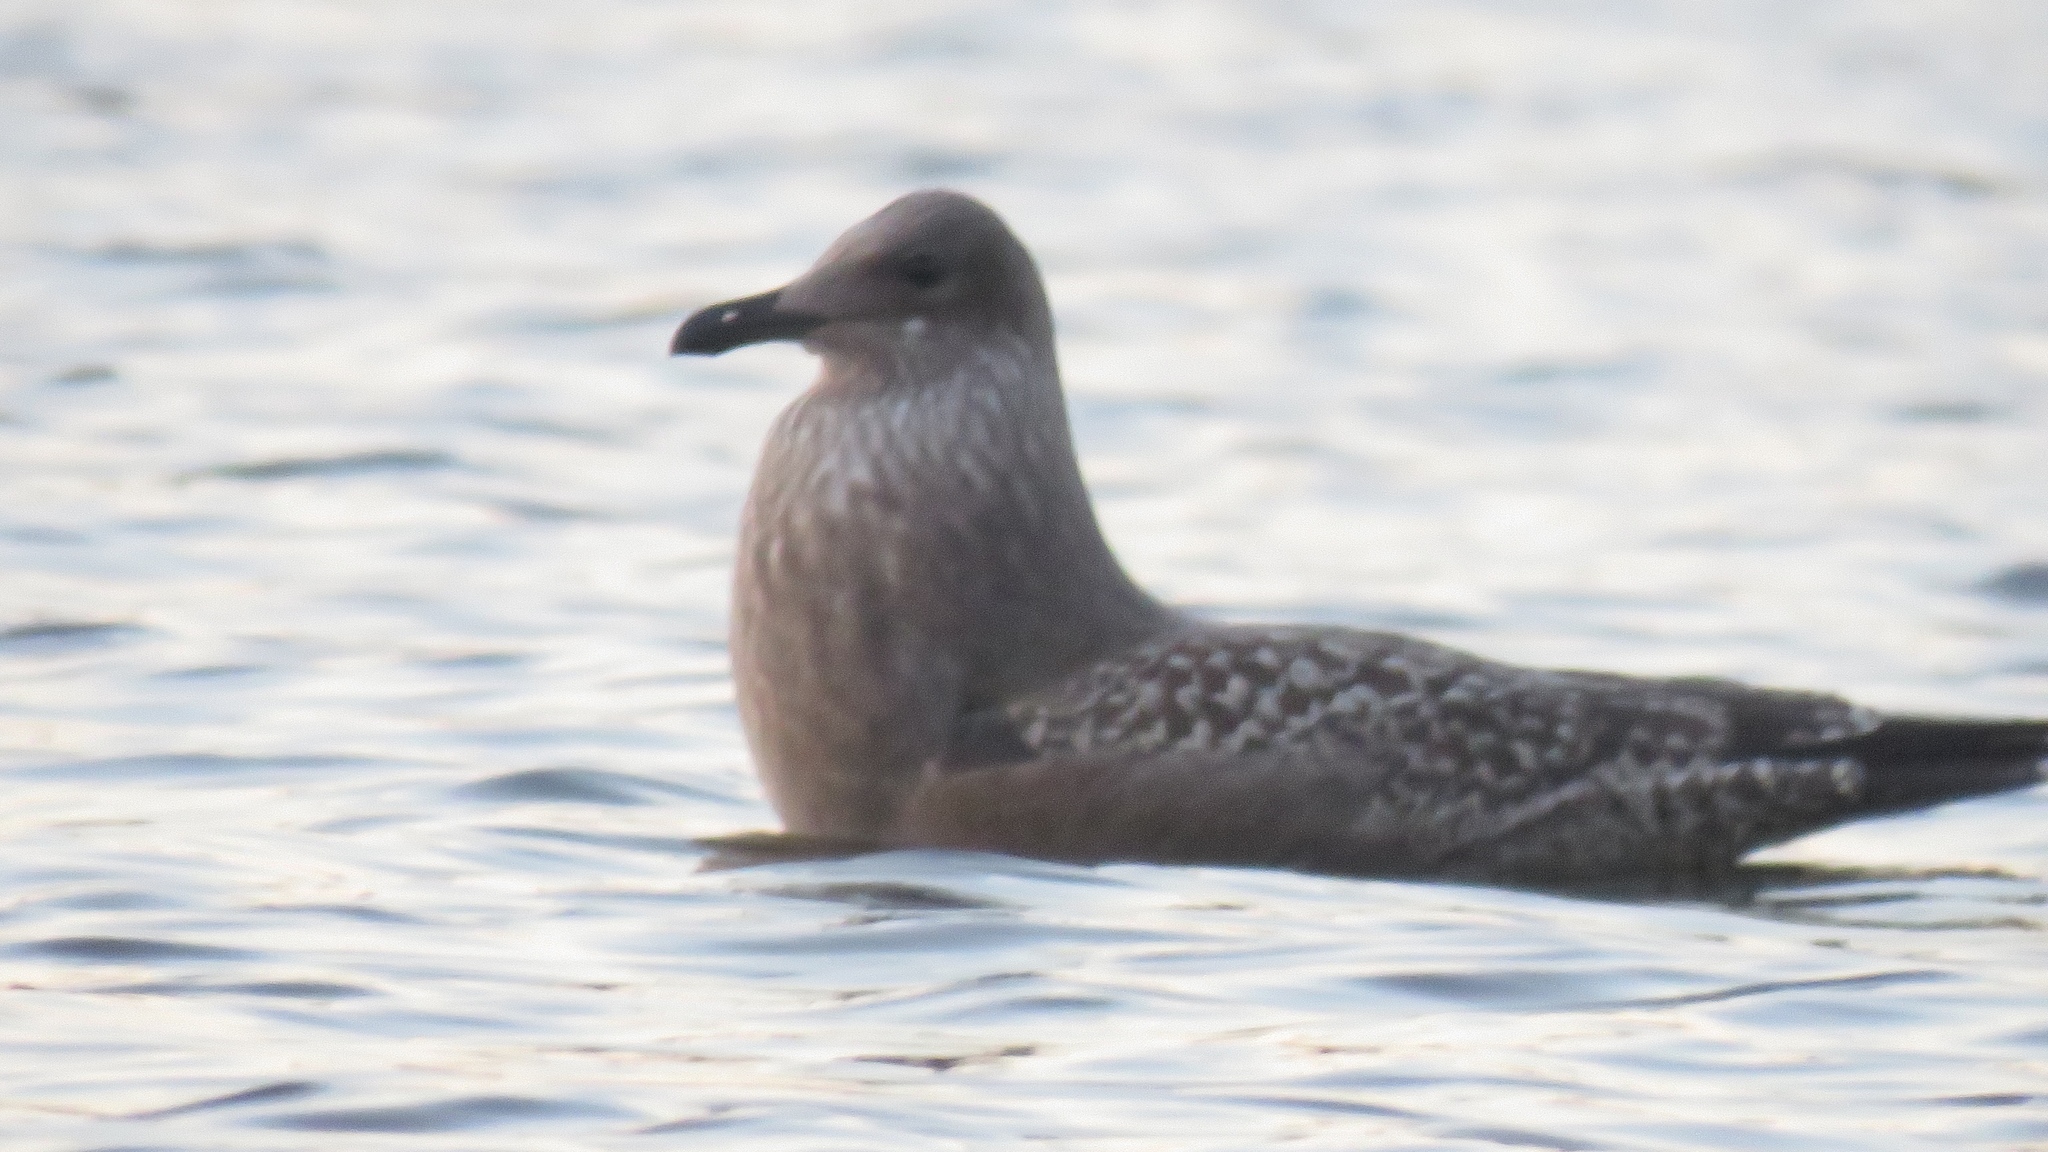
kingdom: Animalia
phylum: Chordata
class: Aves
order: Charadriiformes
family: Laridae
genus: Larus
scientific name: Larus argentatus
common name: Herring gull
